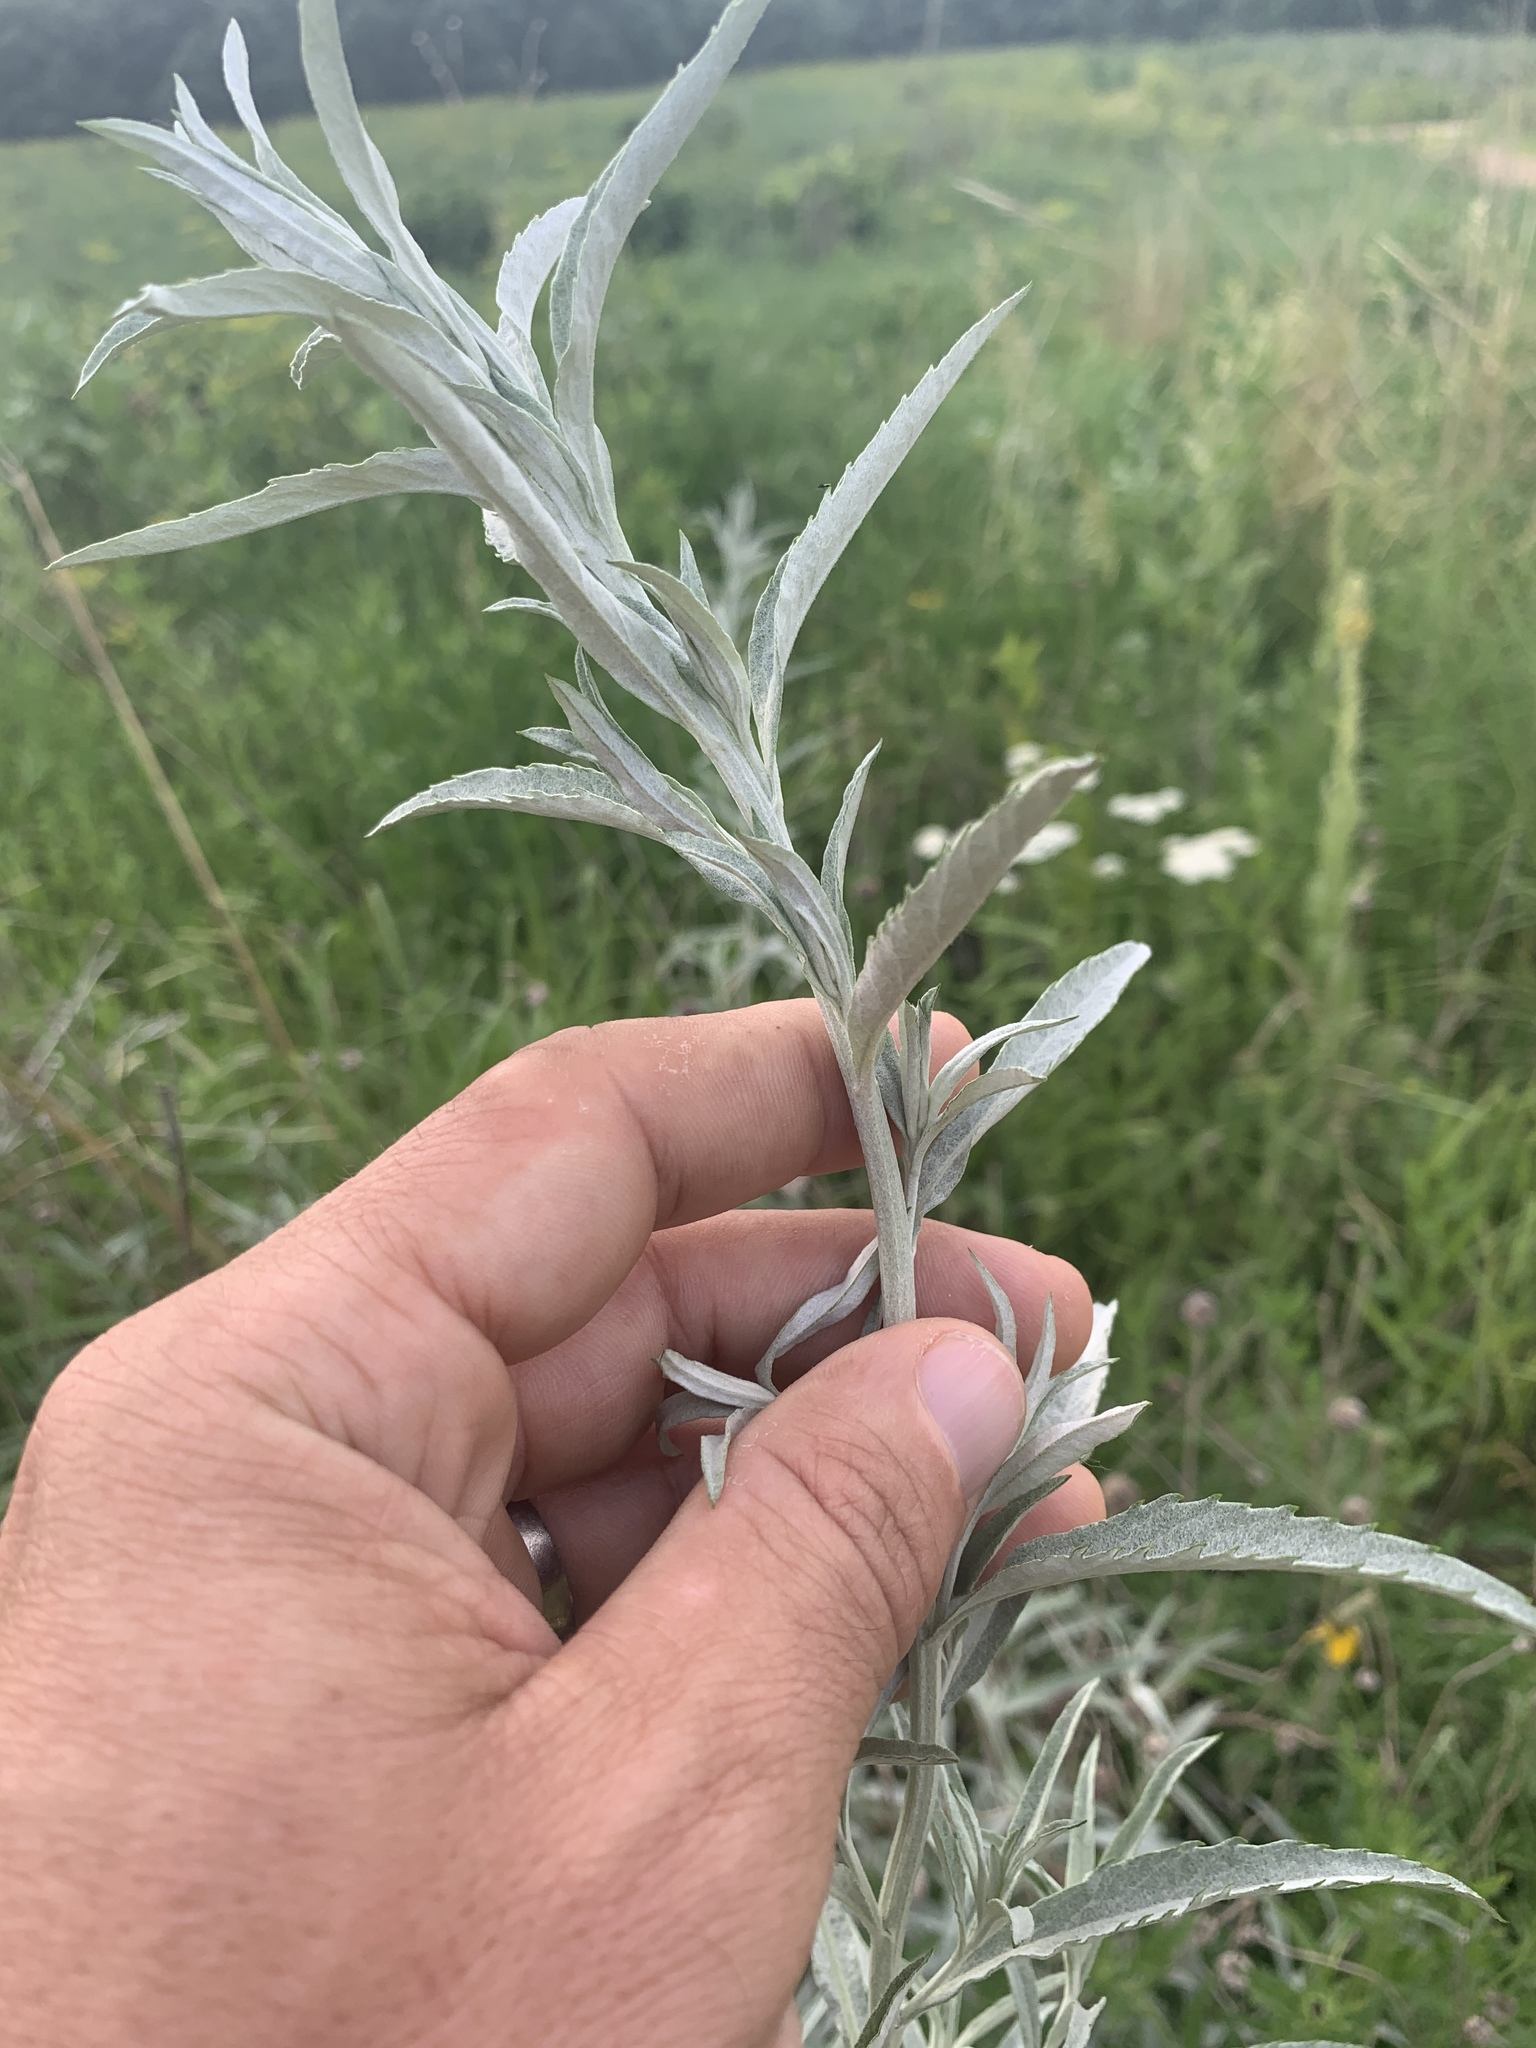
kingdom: Plantae
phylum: Tracheophyta
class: Magnoliopsida
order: Asterales
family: Asteraceae
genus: Artemisia
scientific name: Artemisia ludoviciana
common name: Western mugwort
